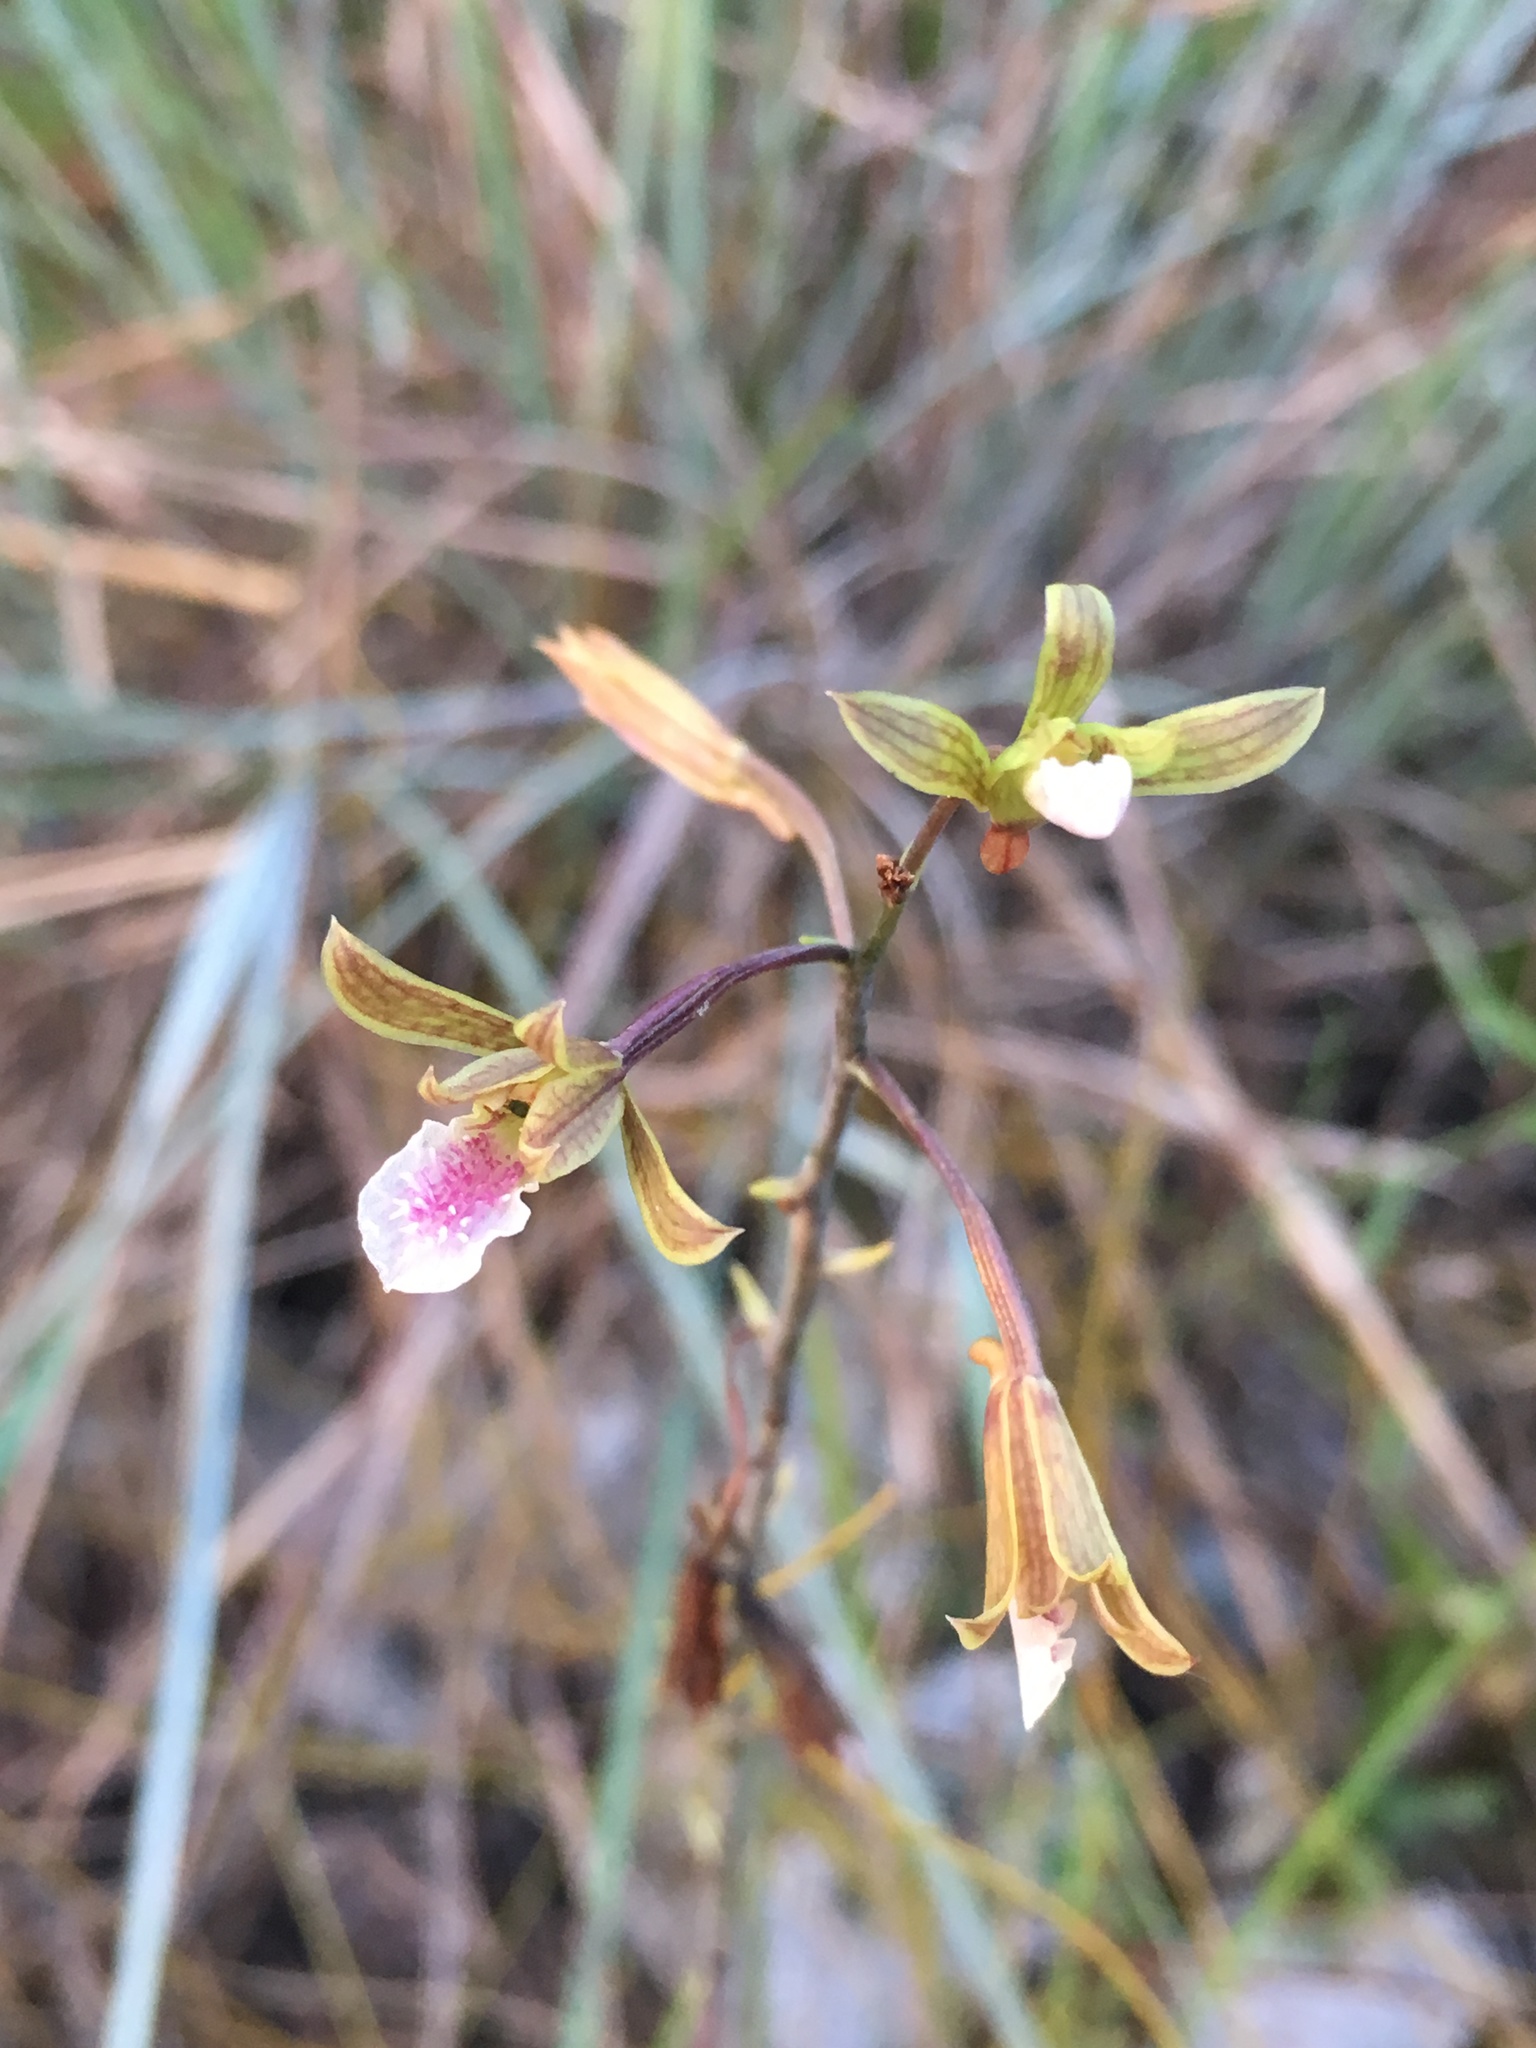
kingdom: Plantae
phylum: Tracheophyta
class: Liliopsida
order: Asparagales
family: Orchidaceae
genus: Eulophia
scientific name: Eulophia graminea
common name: Orchid
